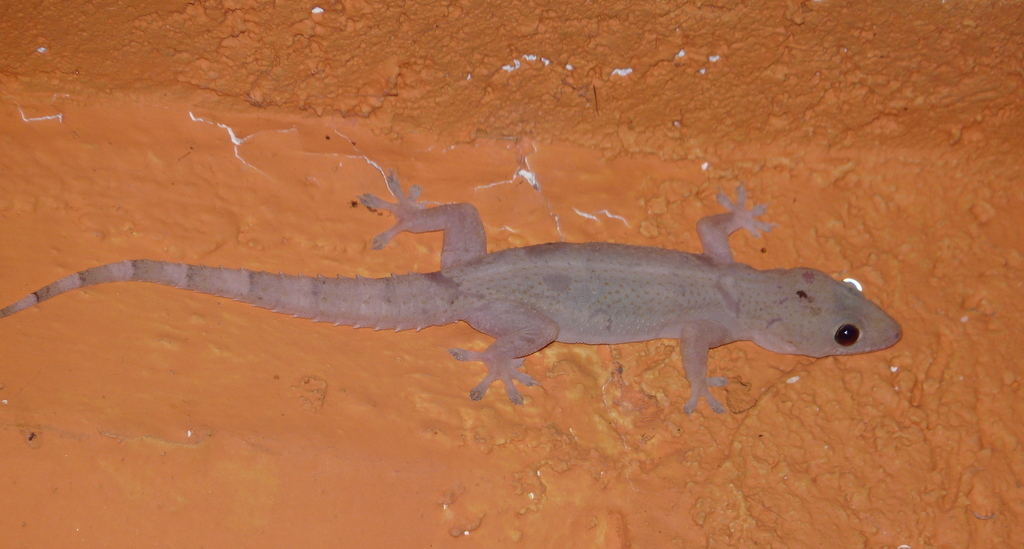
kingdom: Animalia
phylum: Chordata
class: Squamata
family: Gekkonidae
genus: Hemidactylus
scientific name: Hemidactylus mabouia
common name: House gecko
